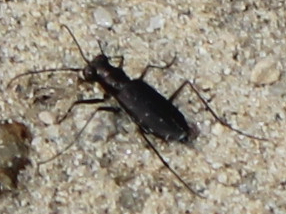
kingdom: Animalia
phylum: Arthropoda
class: Insecta
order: Coleoptera
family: Carabidae
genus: Cicindela
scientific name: Cicindela punctulata
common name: Punctured tiger beetle
